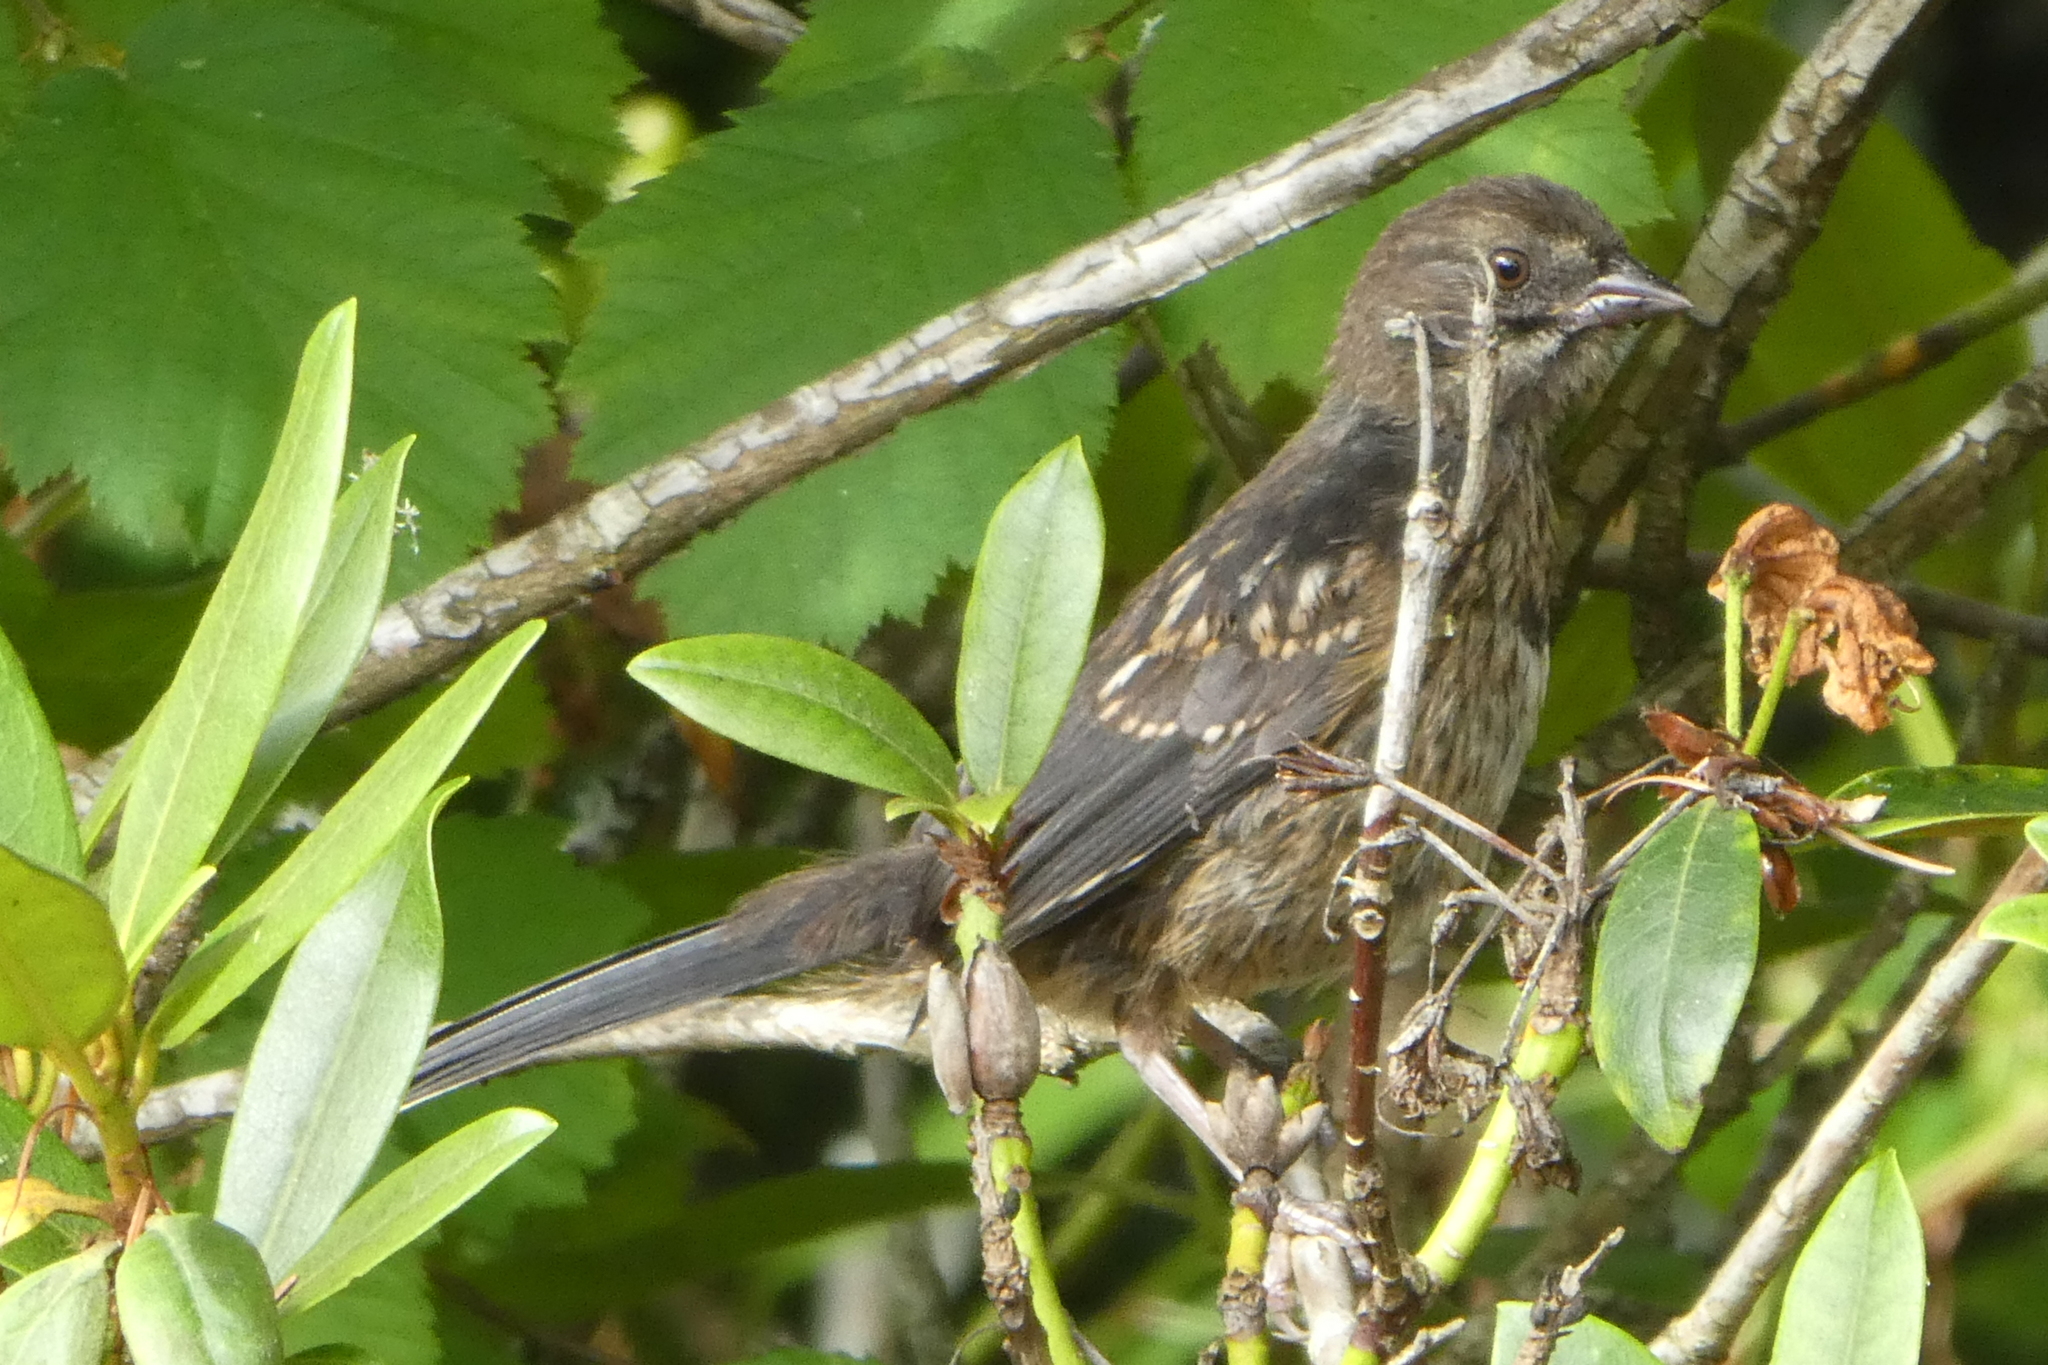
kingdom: Animalia
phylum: Chordata
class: Aves
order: Passeriformes
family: Passerellidae
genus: Pipilo
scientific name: Pipilo maculatus
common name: Spotted towhee
